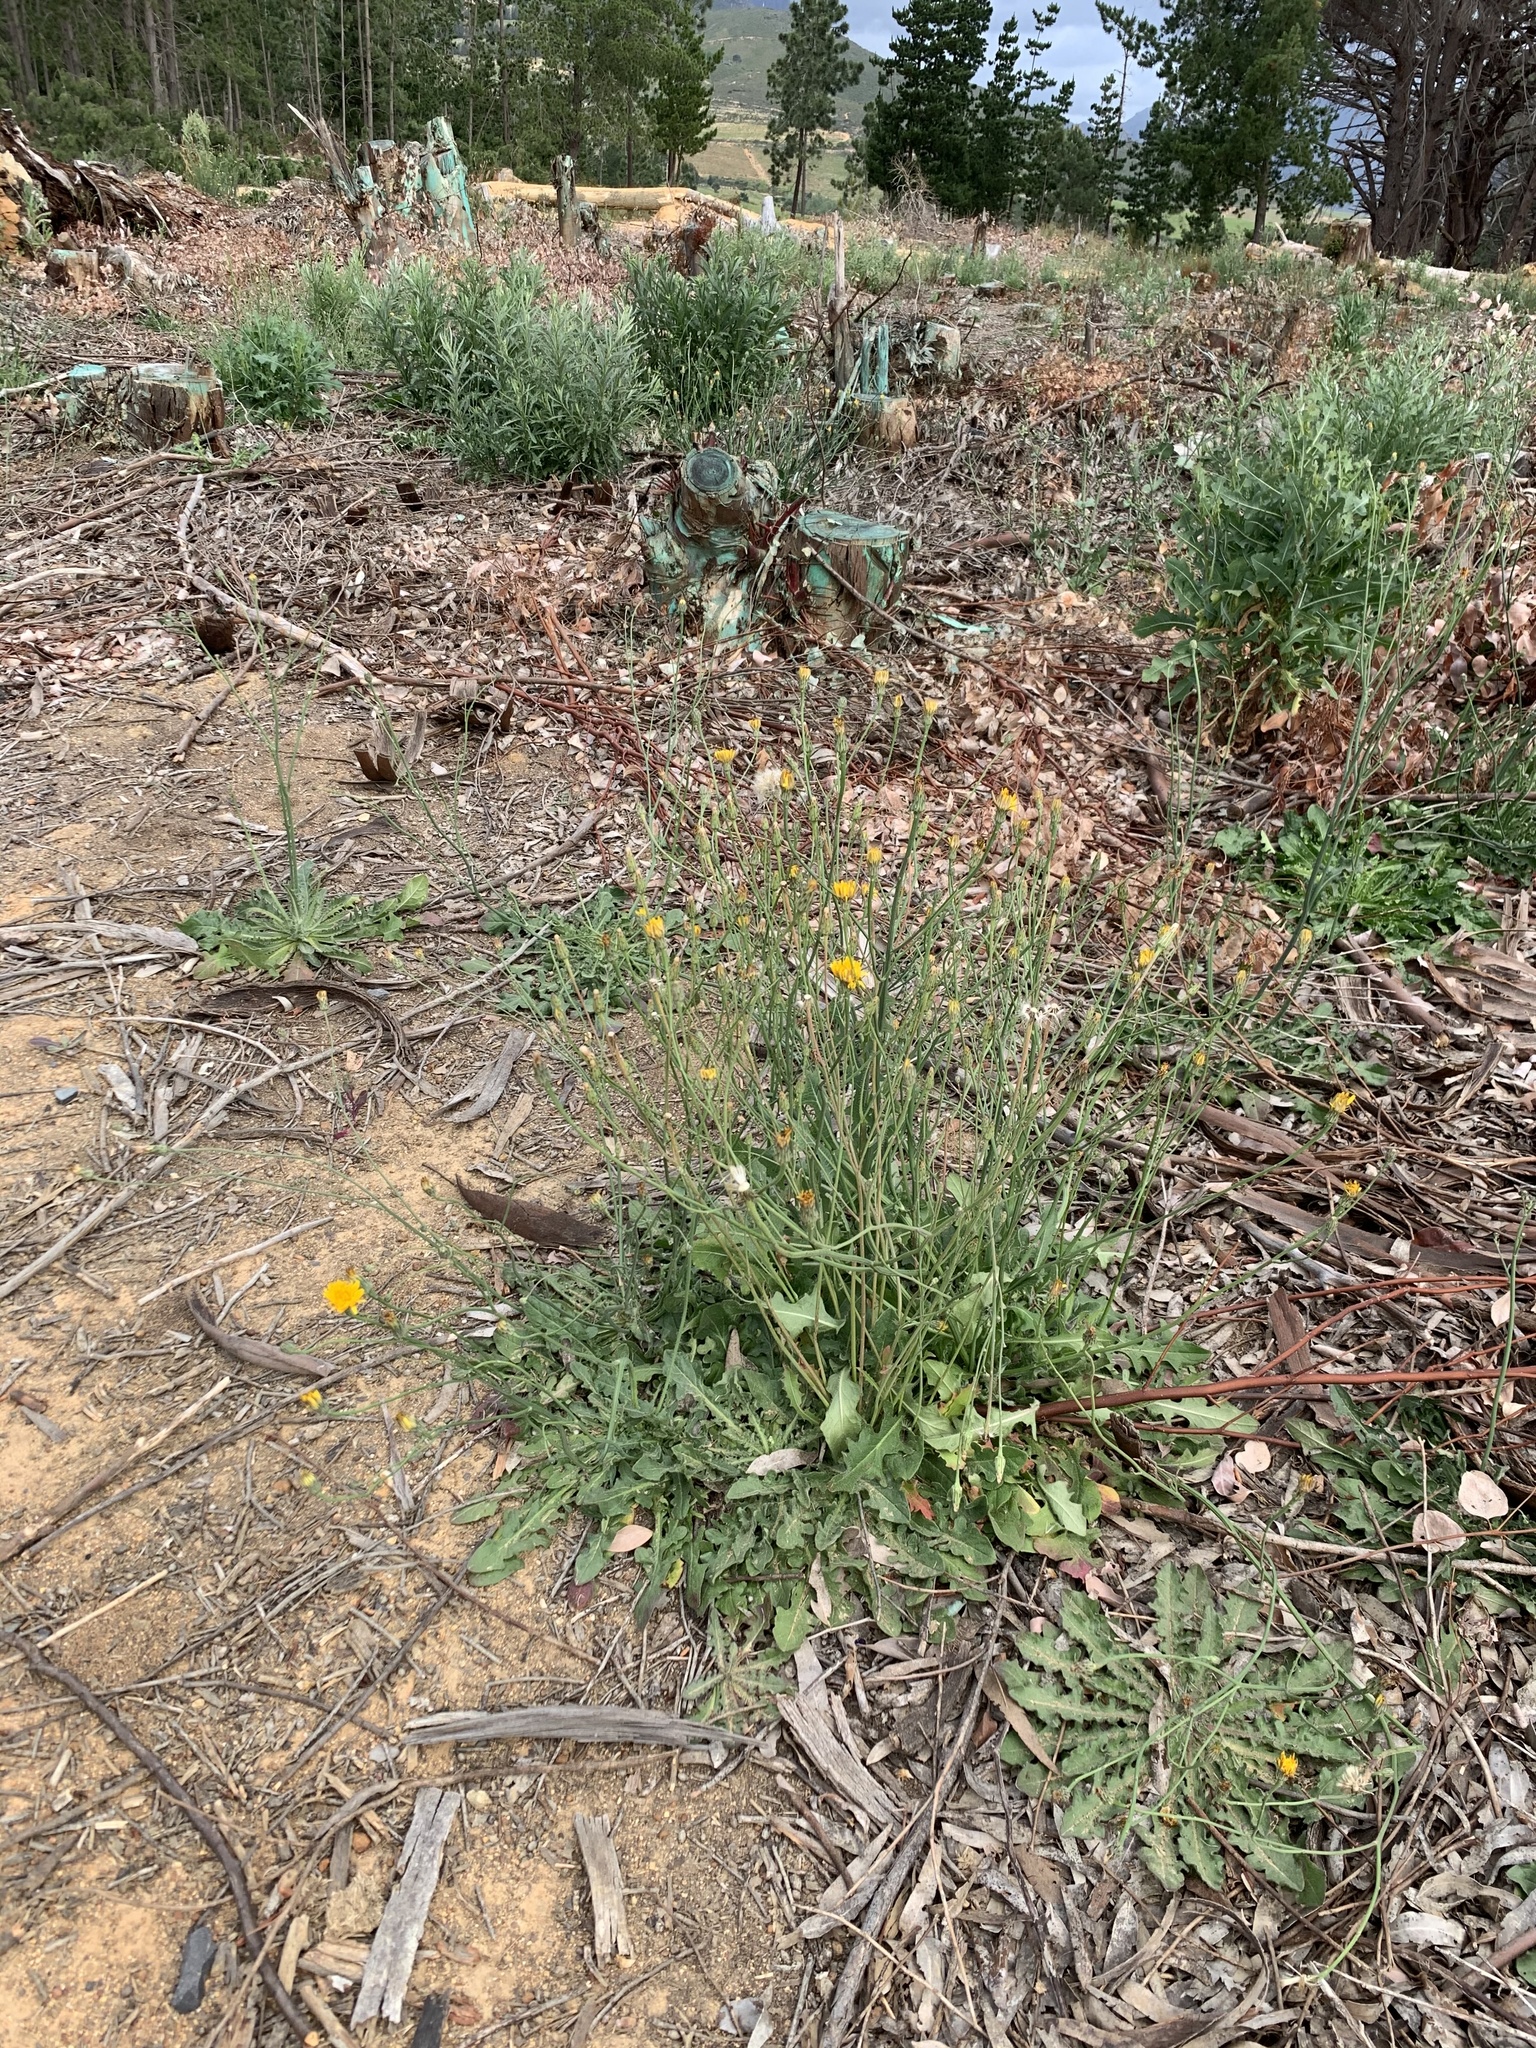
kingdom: Plantae
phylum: Tracheophyta
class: Magnoliopsida
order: Asterales
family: Asteraceae
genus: Hypochaeris
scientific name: Hypochaeris radicata
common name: Flatweed
